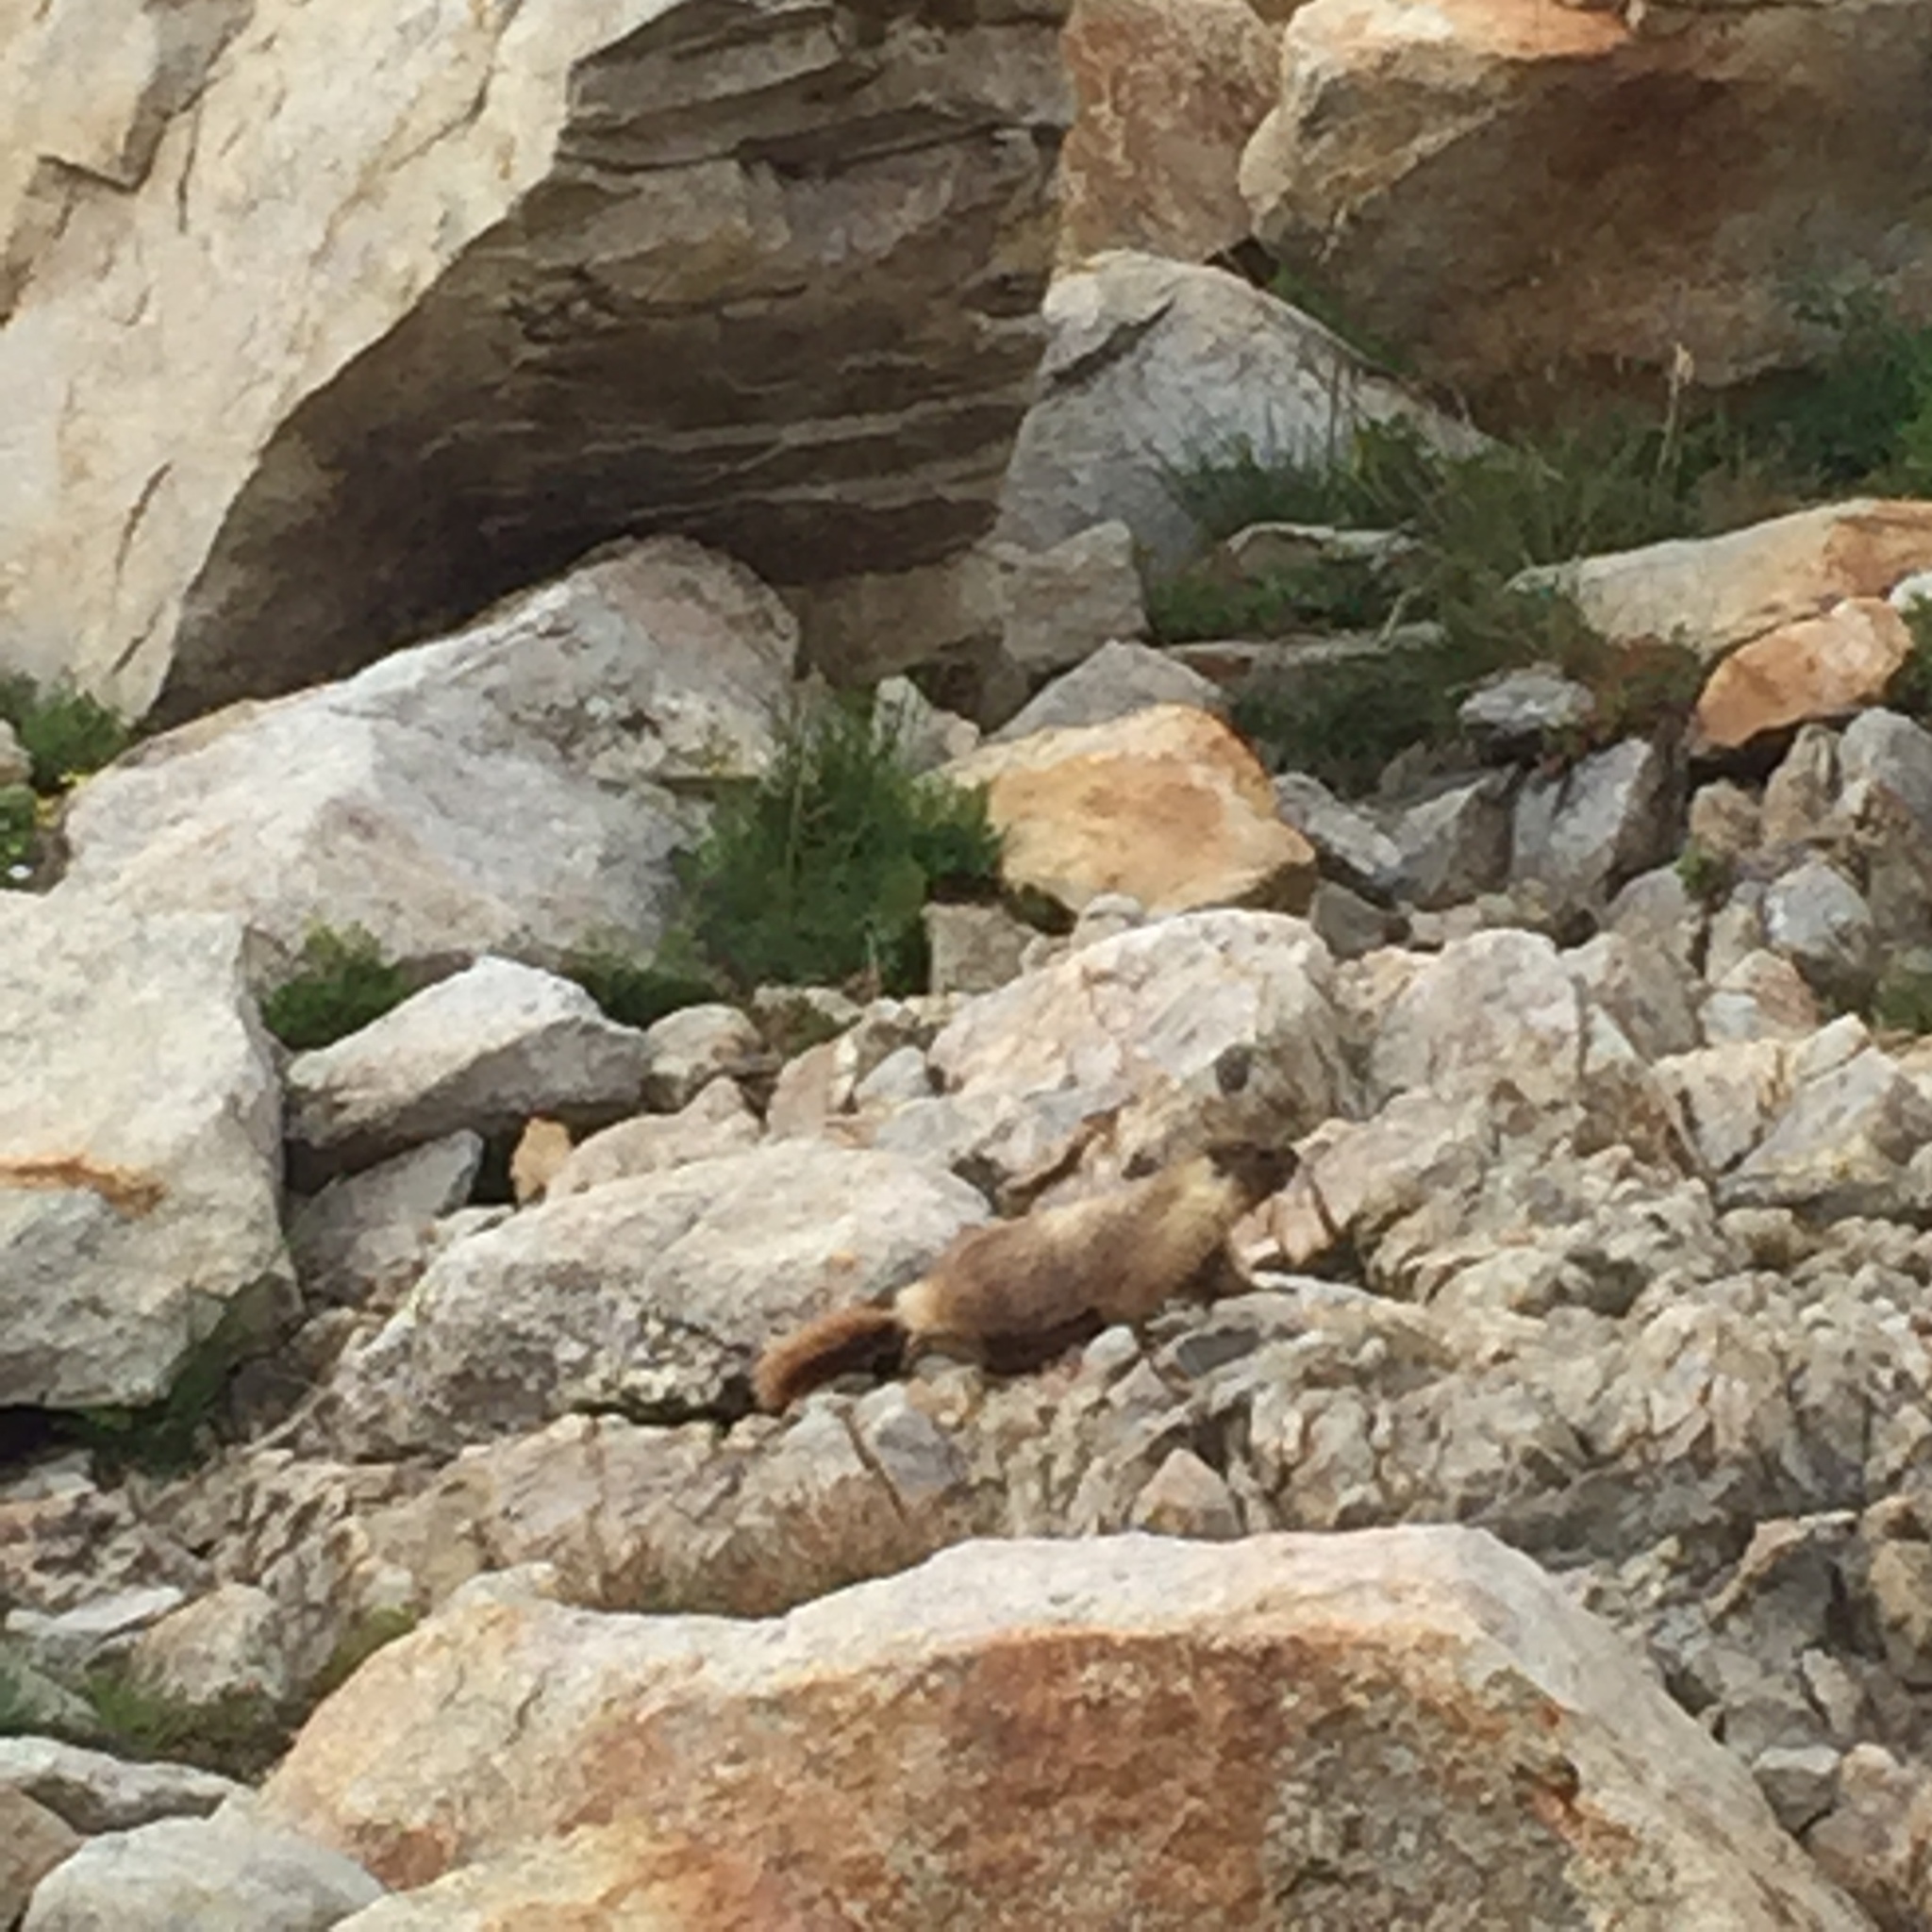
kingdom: Animalia
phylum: Chordata
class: Mammalia
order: Rodentia
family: Sciuridae
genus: Marmota
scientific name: Marmota flaviventris
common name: Yellow-bellied marmot
